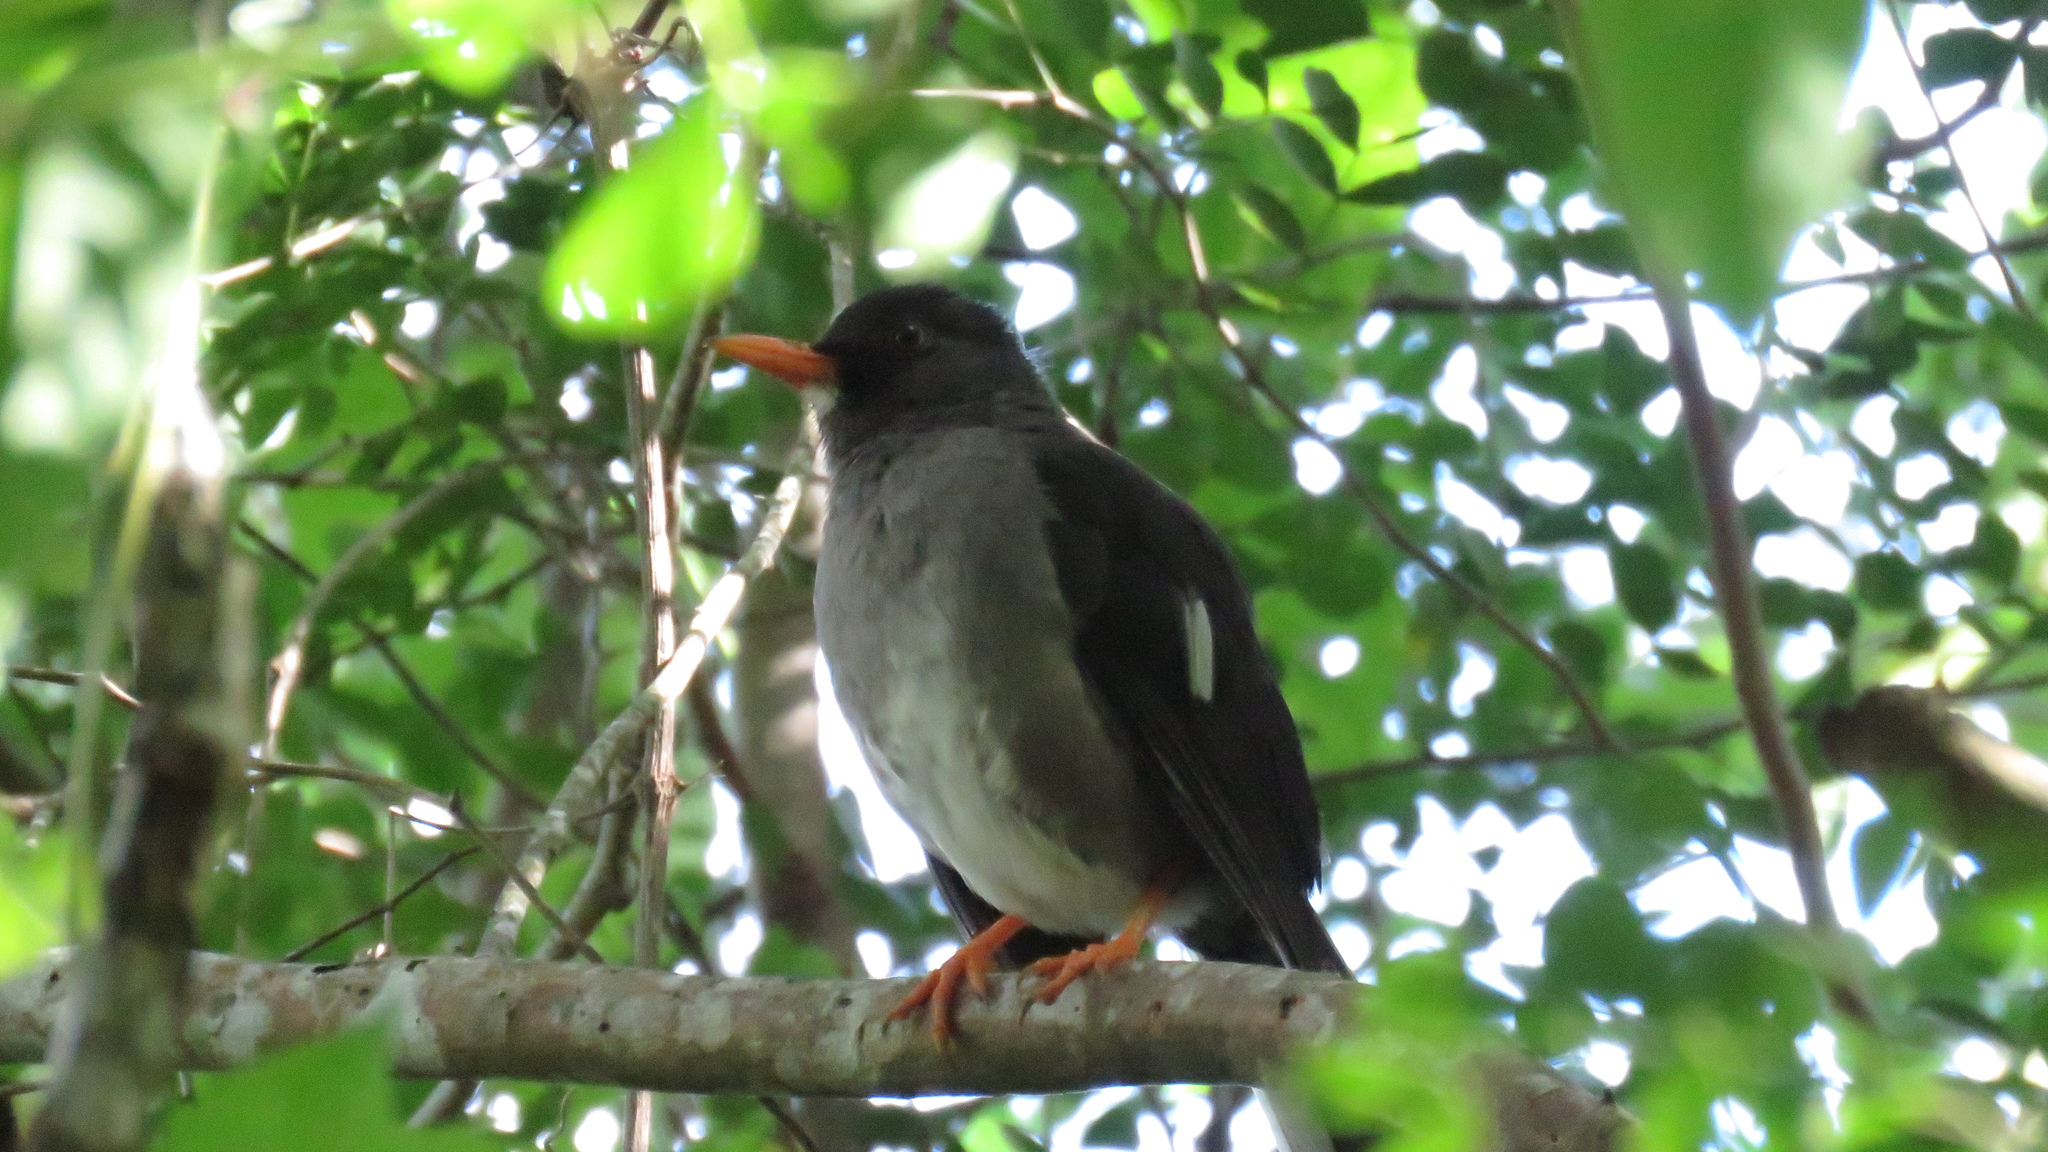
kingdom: Animalia
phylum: Chordata
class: Aves
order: Passeriformes
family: Turdidae
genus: Turdus
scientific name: Turdus aurantius
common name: White-chinned thrush
